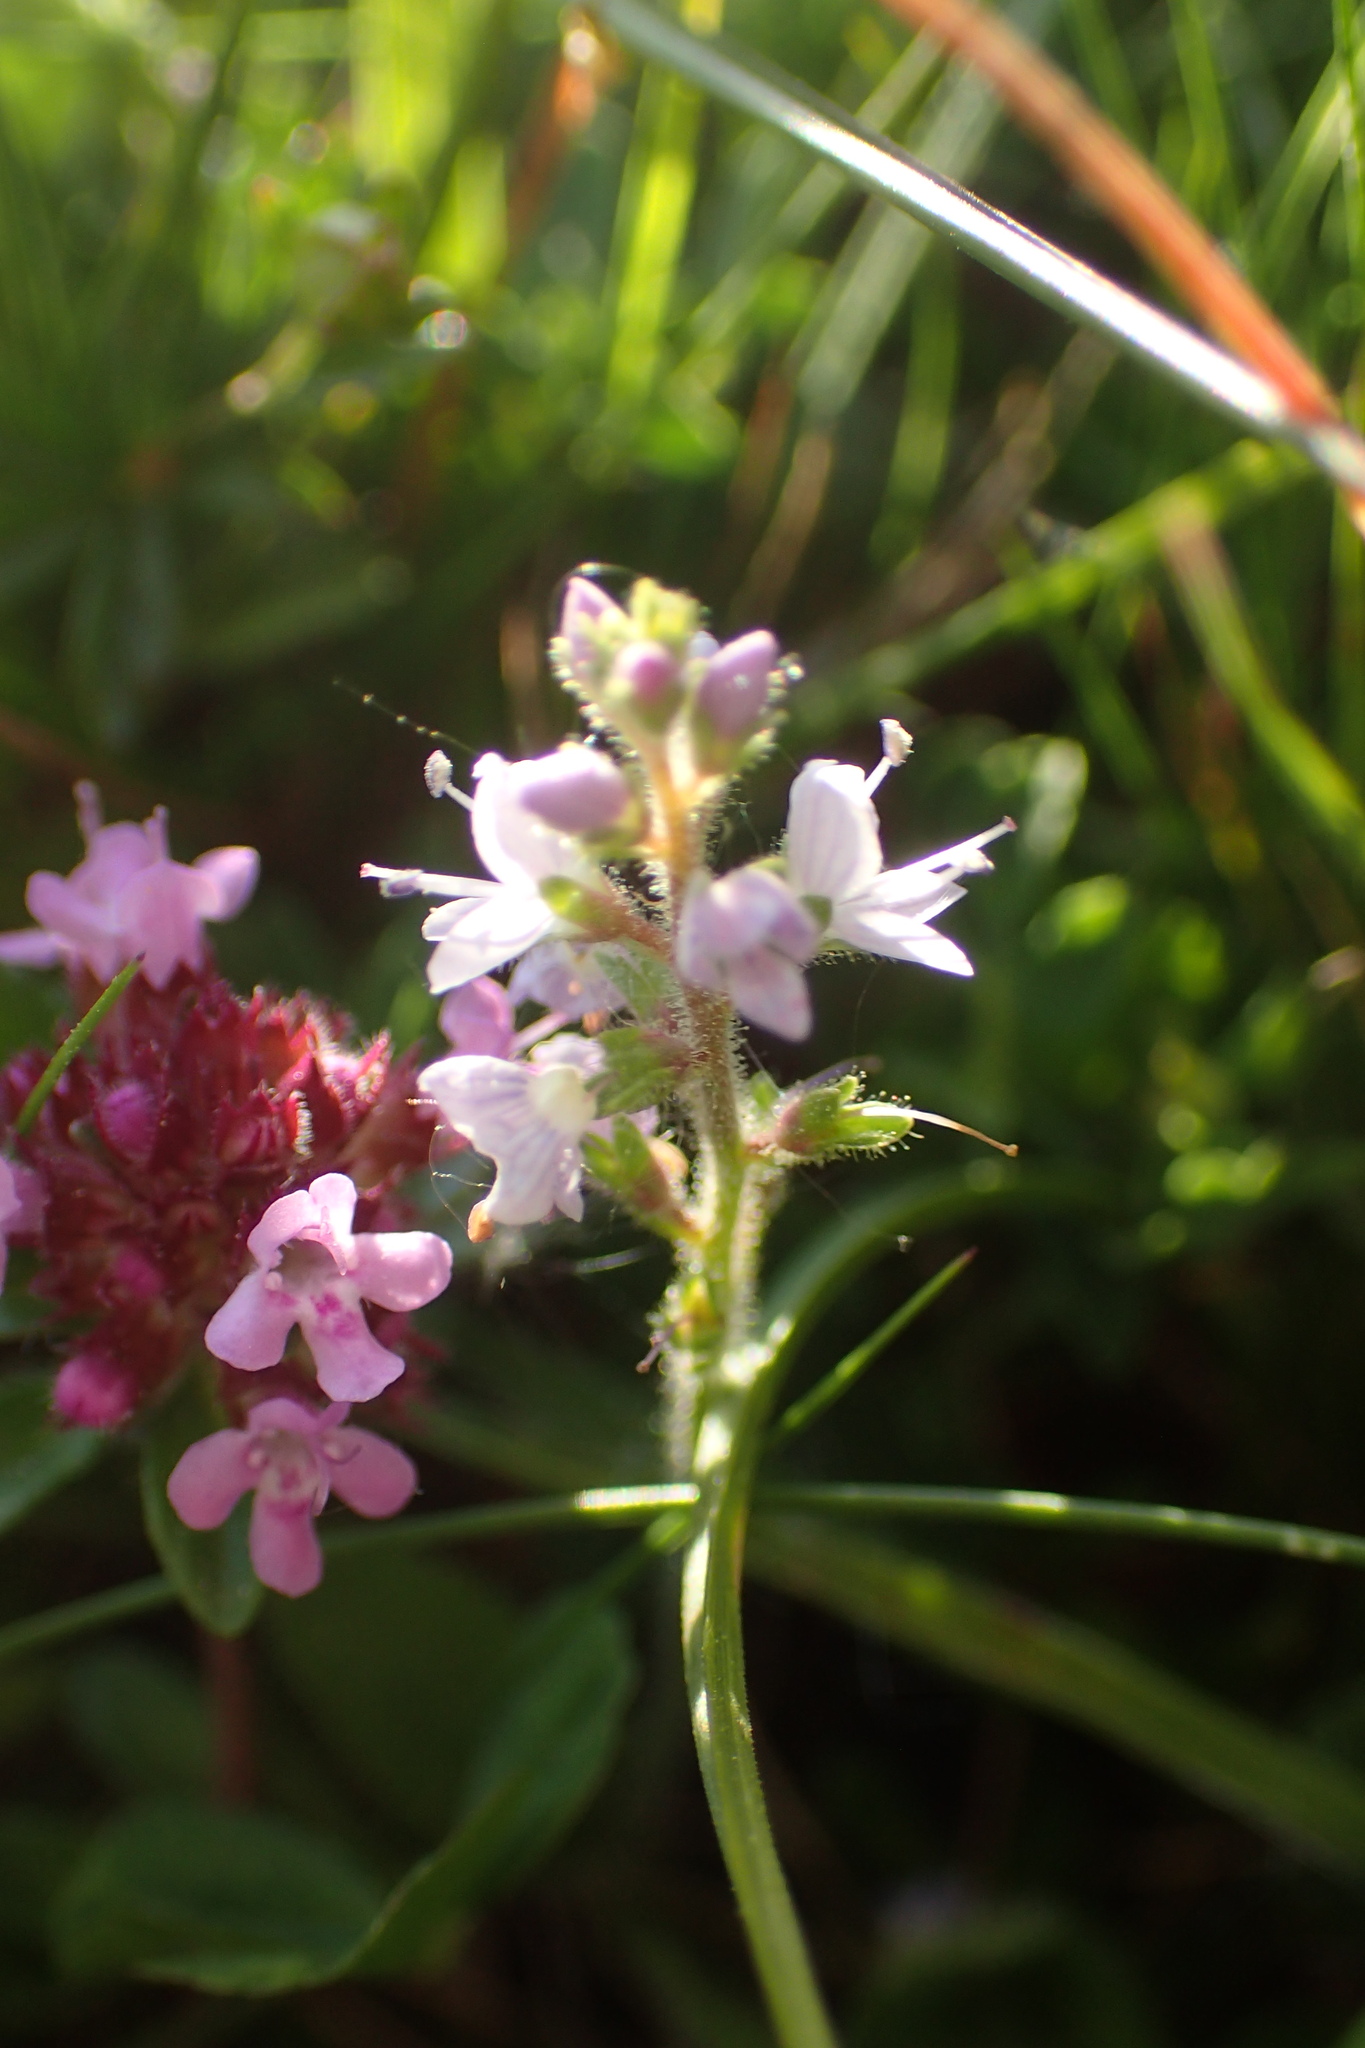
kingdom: Plantae
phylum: Tracheophyta
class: Magnoliopsida
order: Lamiales
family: Lamiaceae
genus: Thymus
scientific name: Thymus praecox
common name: Wild thyme
